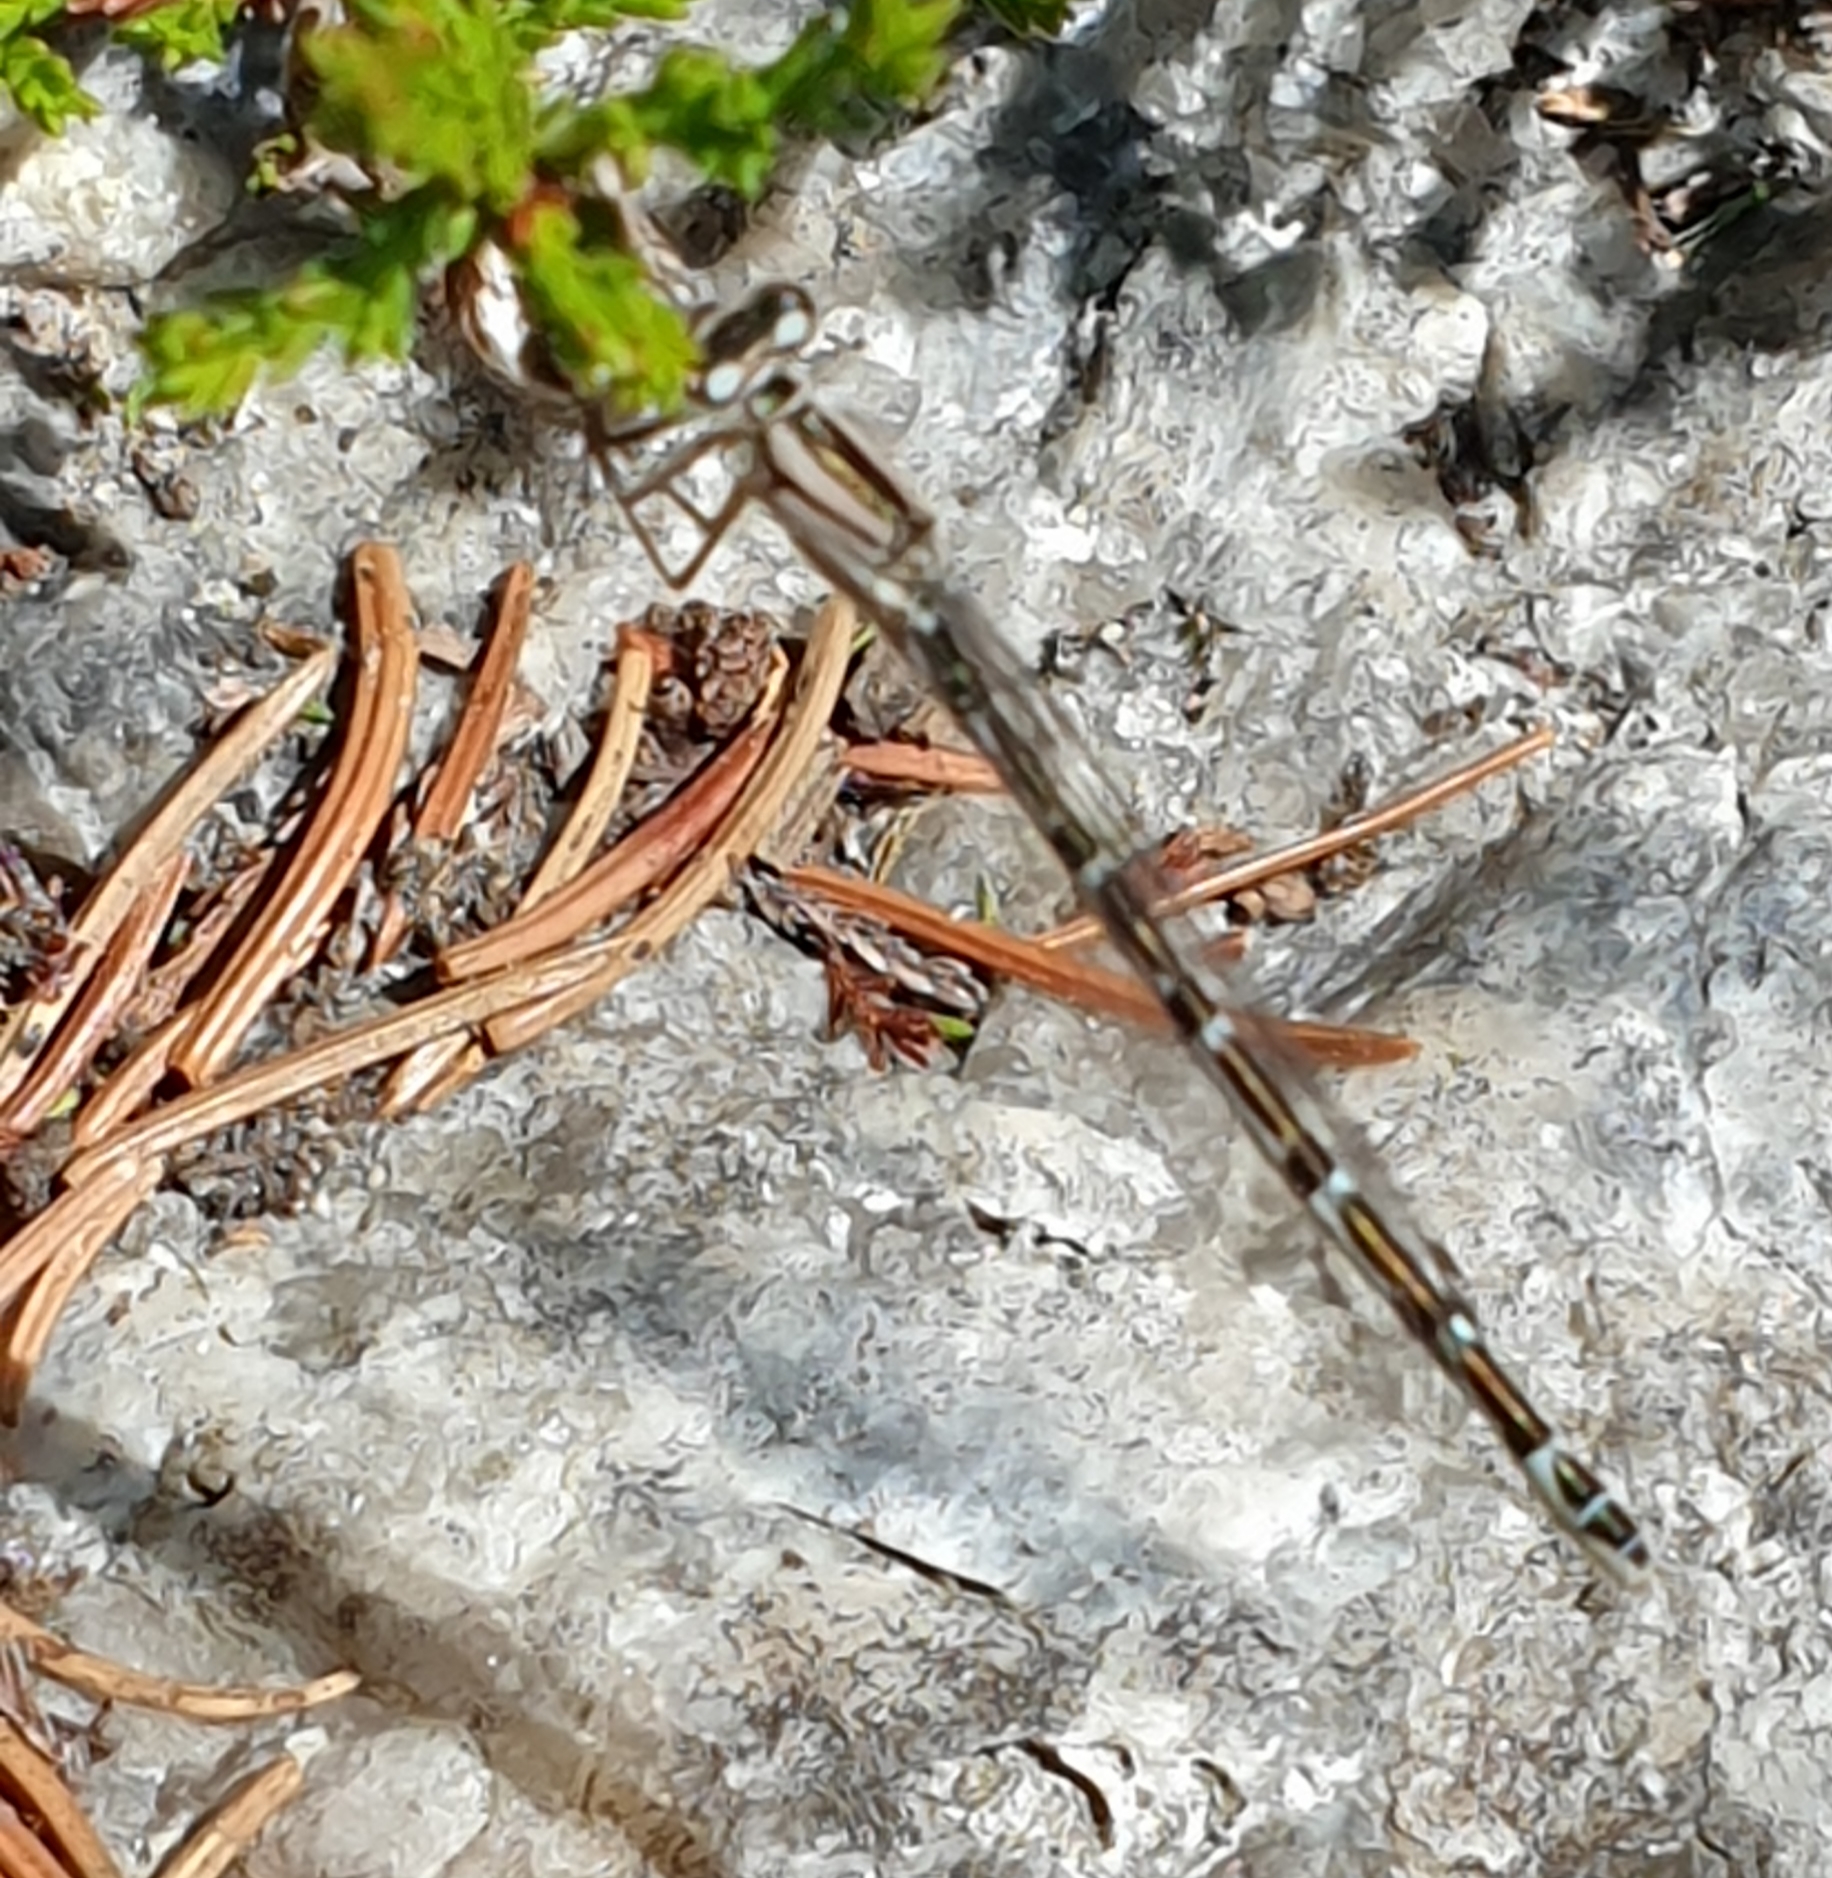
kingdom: Animalia
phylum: Arthropoda
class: Insecta
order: Odonata
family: Coenagrionidae
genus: Enallagma
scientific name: Enallagma cyathigerum
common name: Common blue damselfly
